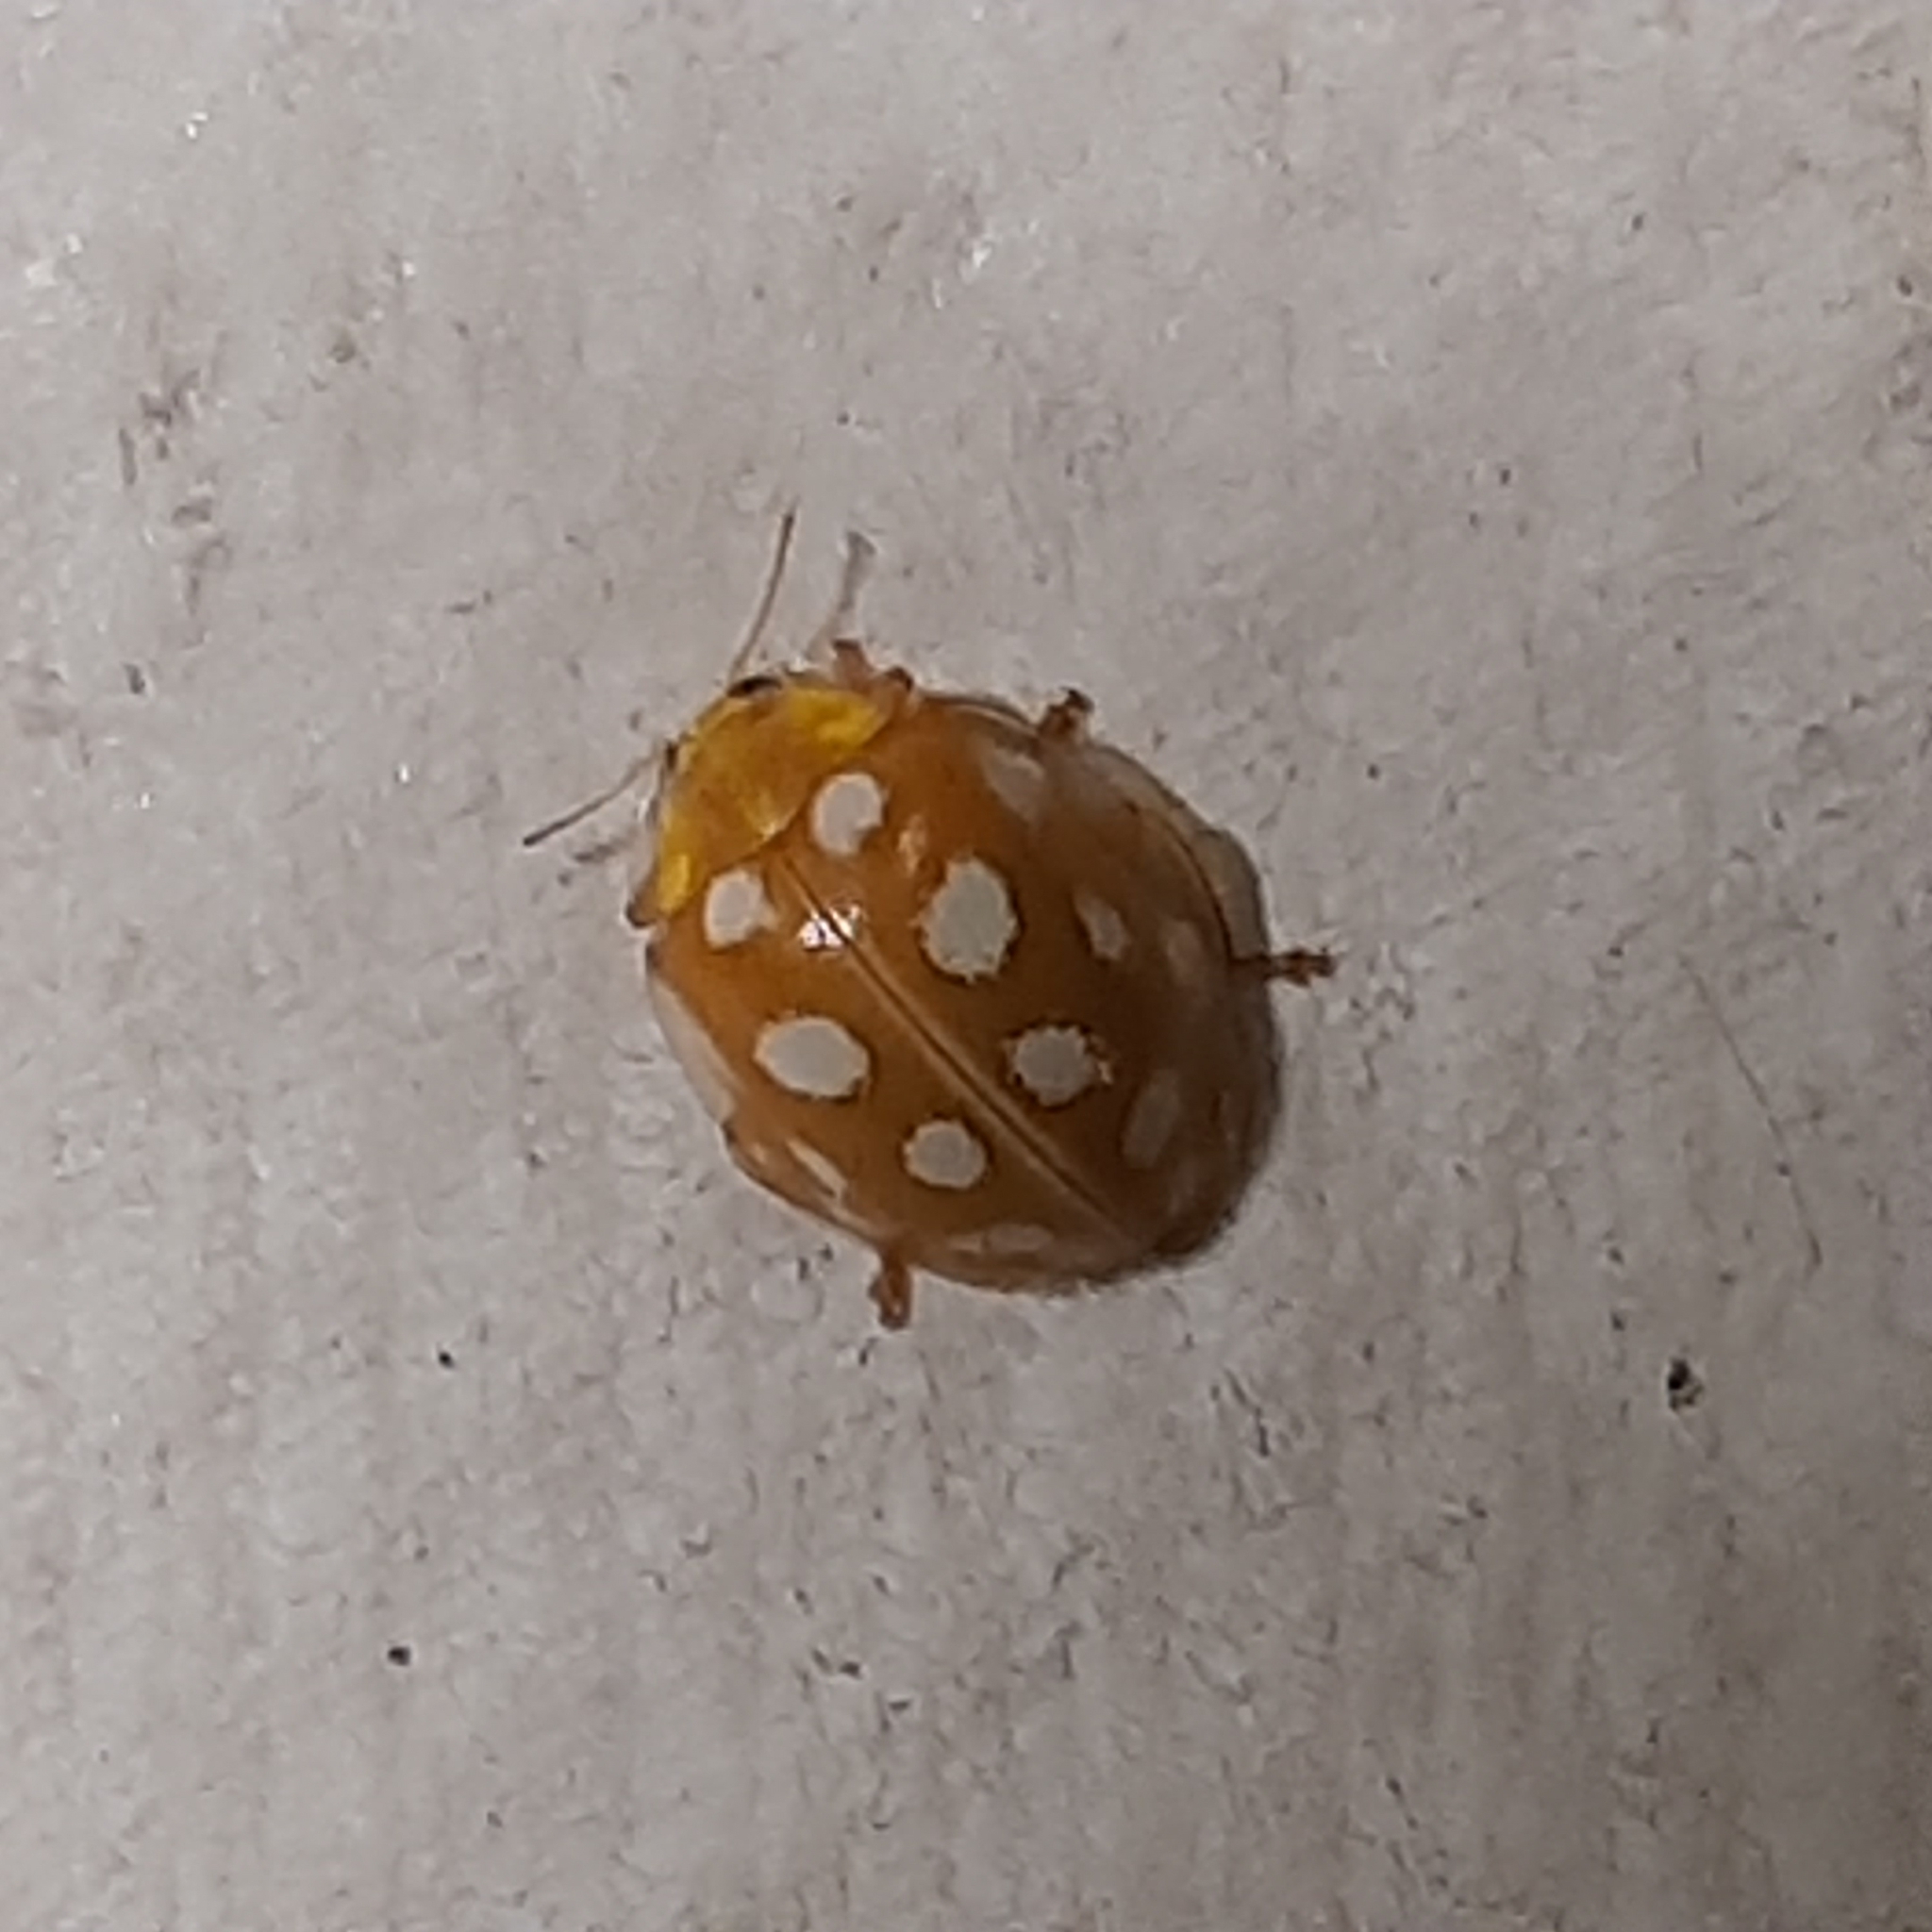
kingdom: Animalia
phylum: Arthropoda
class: Insecta
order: Coleoptera
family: Coccinellidae
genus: Halyzia
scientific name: Halyzia sedecimguttata
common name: Orange ladybird
